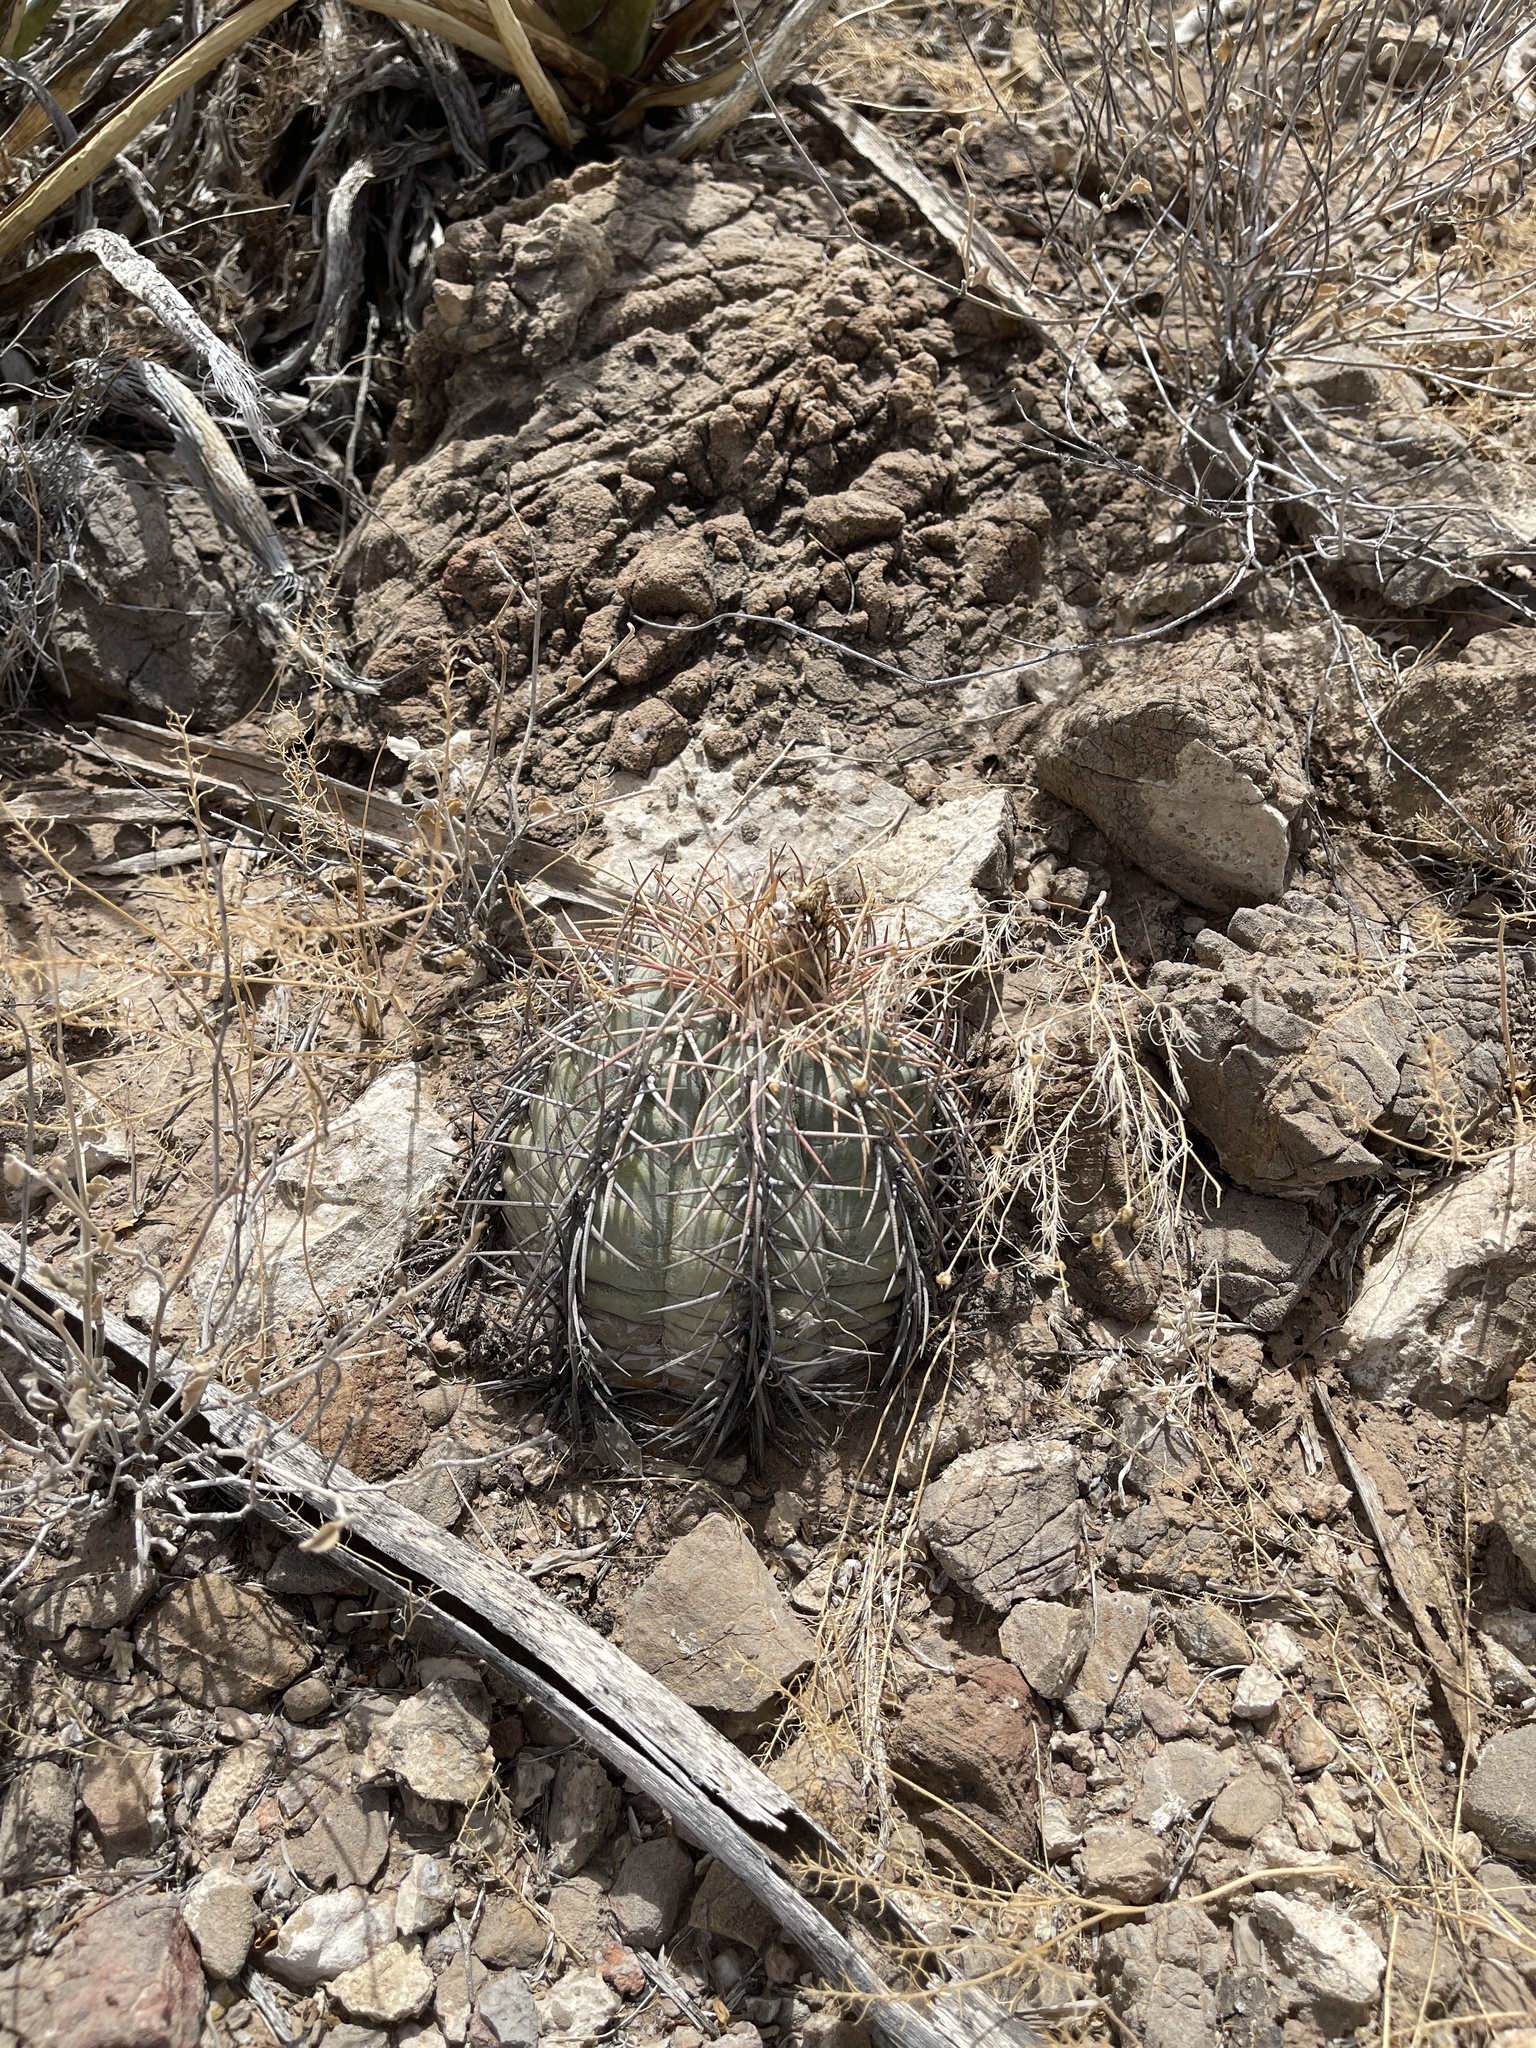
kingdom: Plantae
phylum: Tracheophyta
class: Magnoliopsida
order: Caryophyllales
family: Cactaceae
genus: Echinocactus
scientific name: Echinocactus horizonthalonius
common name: Devilshead
